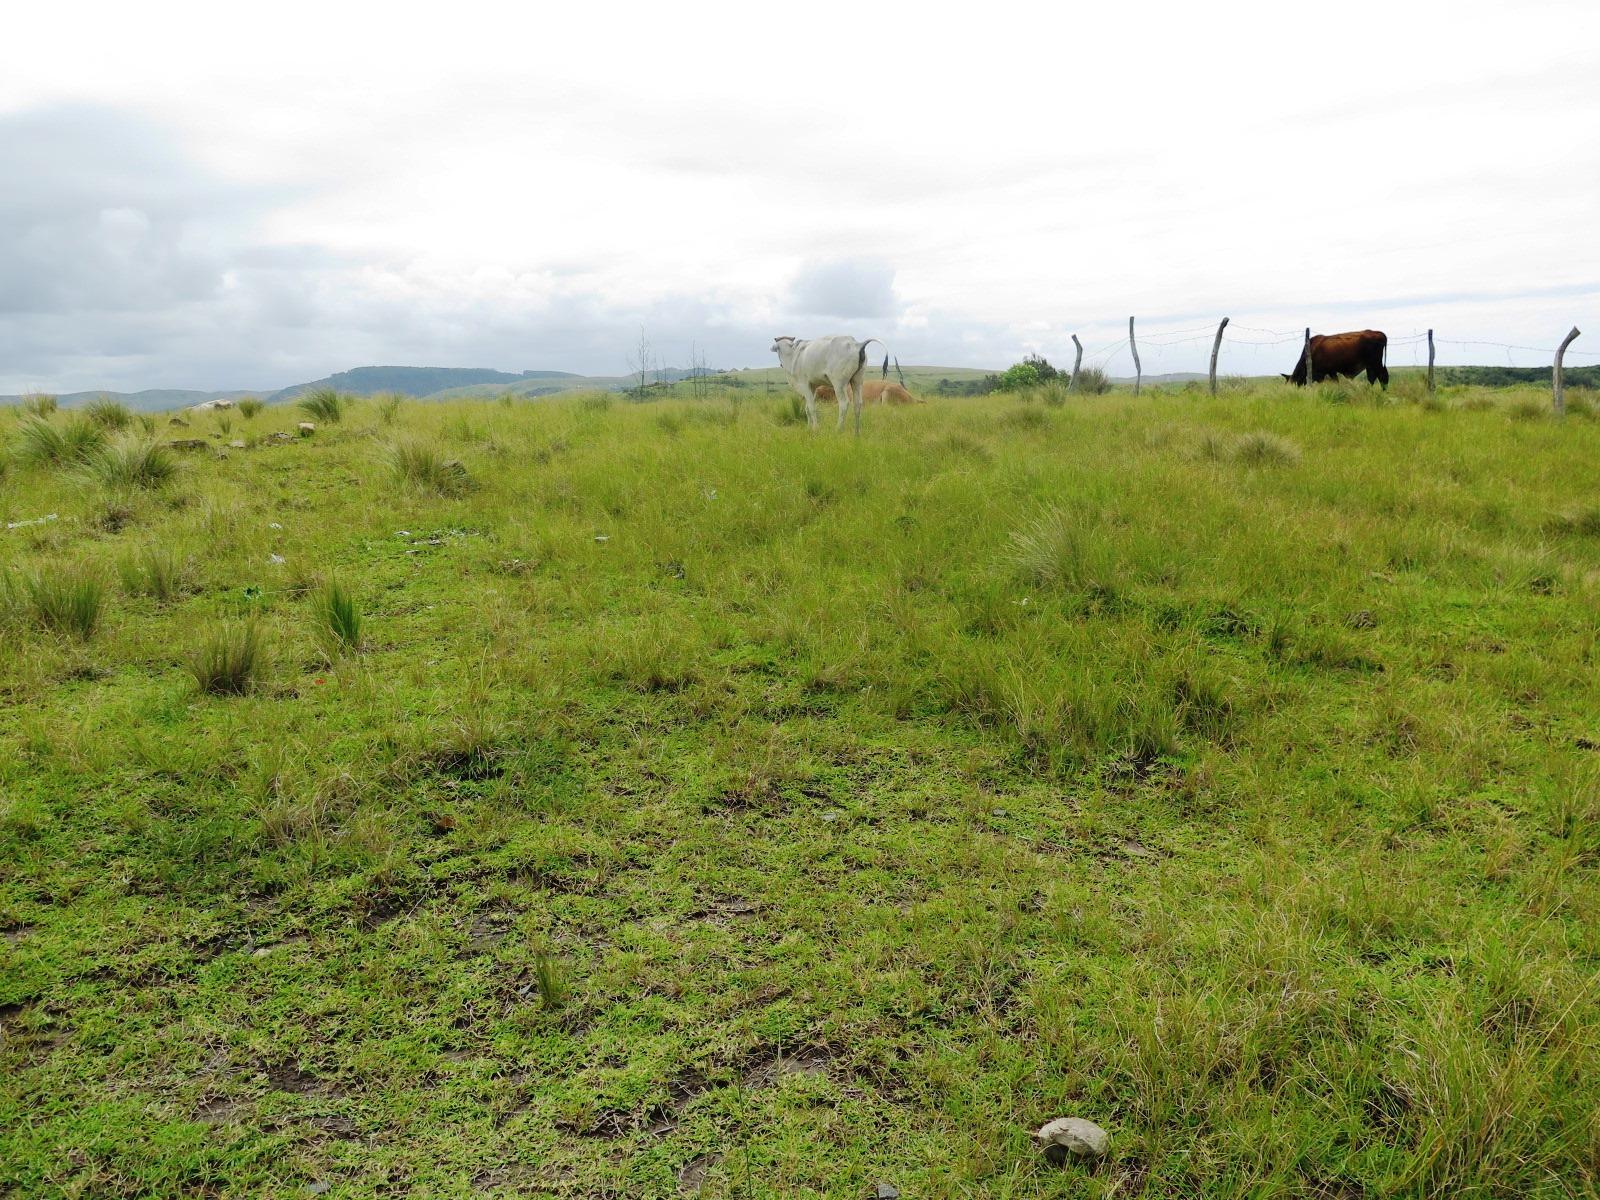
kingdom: Plantae
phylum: Tracheophyta
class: Liliopsida
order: Poales
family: Poaceae
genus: Stenotaphrum
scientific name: Stenotaphrum secundatum
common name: St. augustine grass
